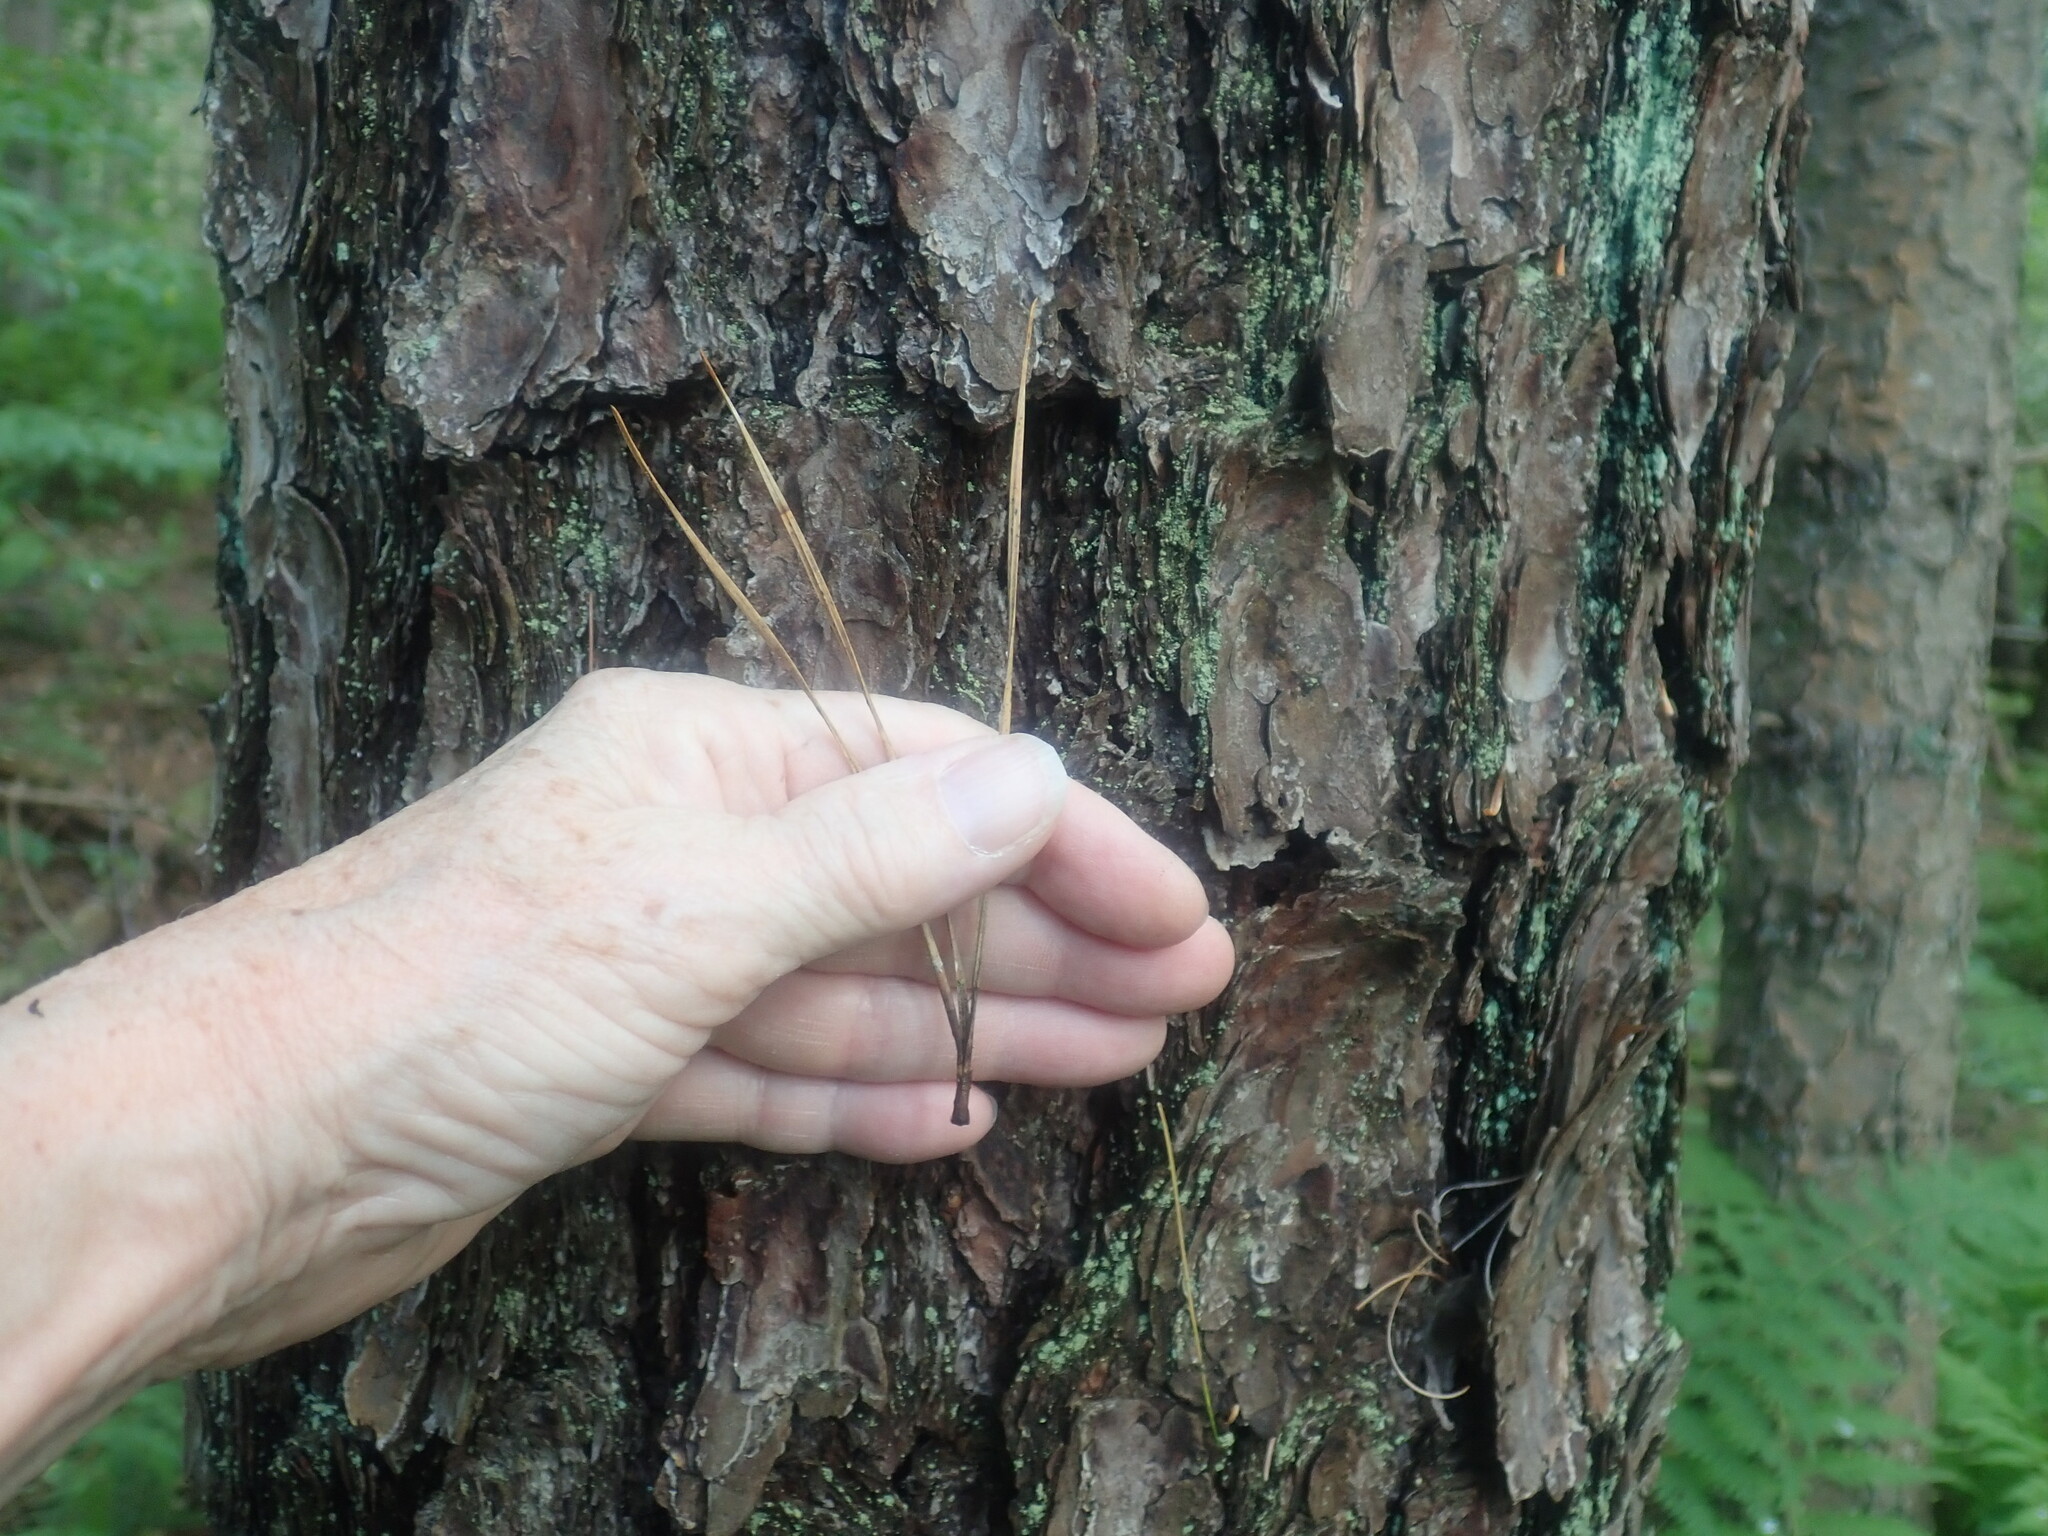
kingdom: Plantae
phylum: Tracheophyta
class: Pinopsida
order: Pinales
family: Pinaceae
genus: Pinus
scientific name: Pinus rigida
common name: Pitch pine
